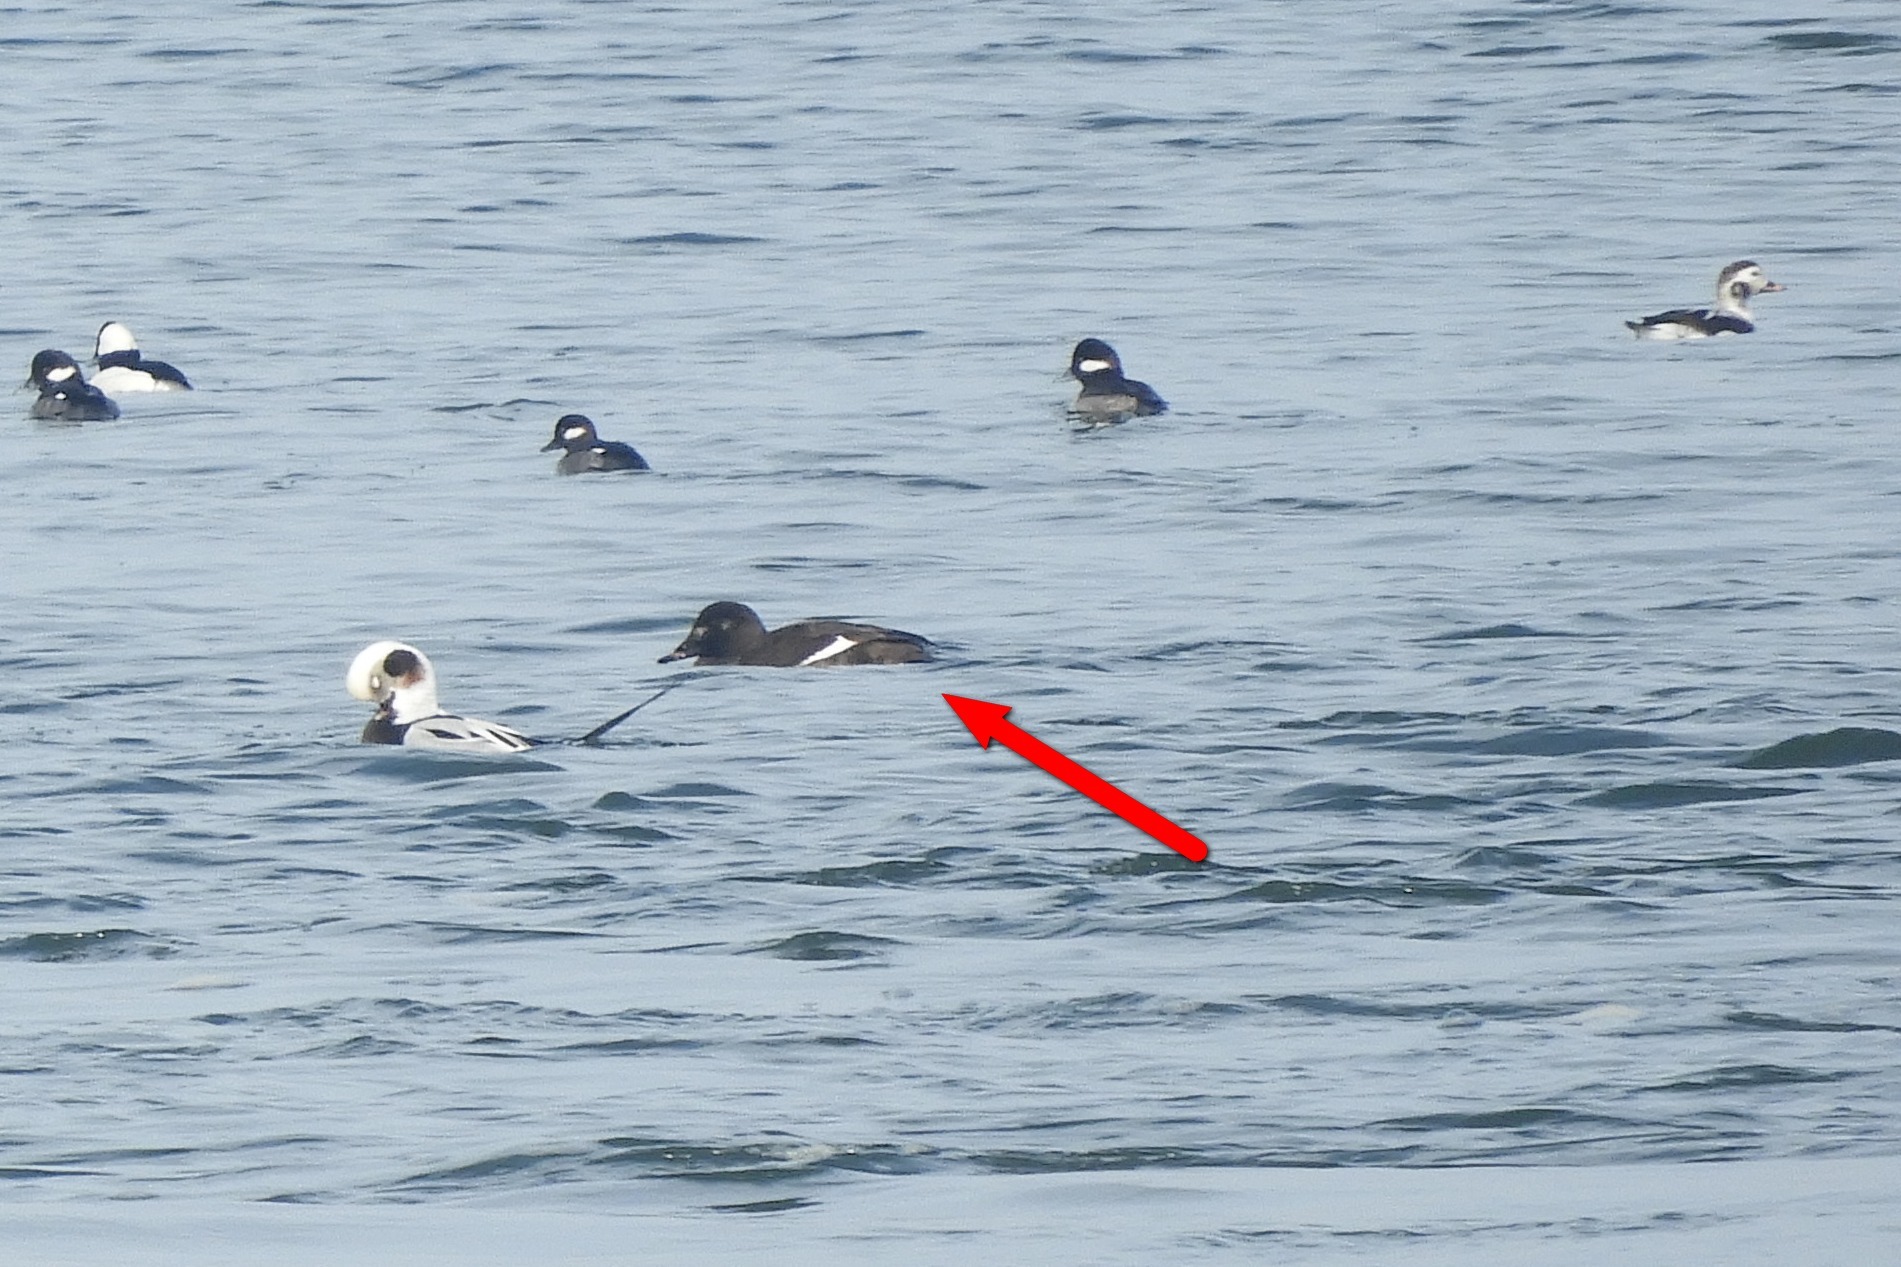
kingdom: Animalia
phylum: Chordata
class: Aves
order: Anseriformes
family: Anatidae
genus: Melanitta
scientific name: Melanitta deglandi
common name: White-winged scoter
